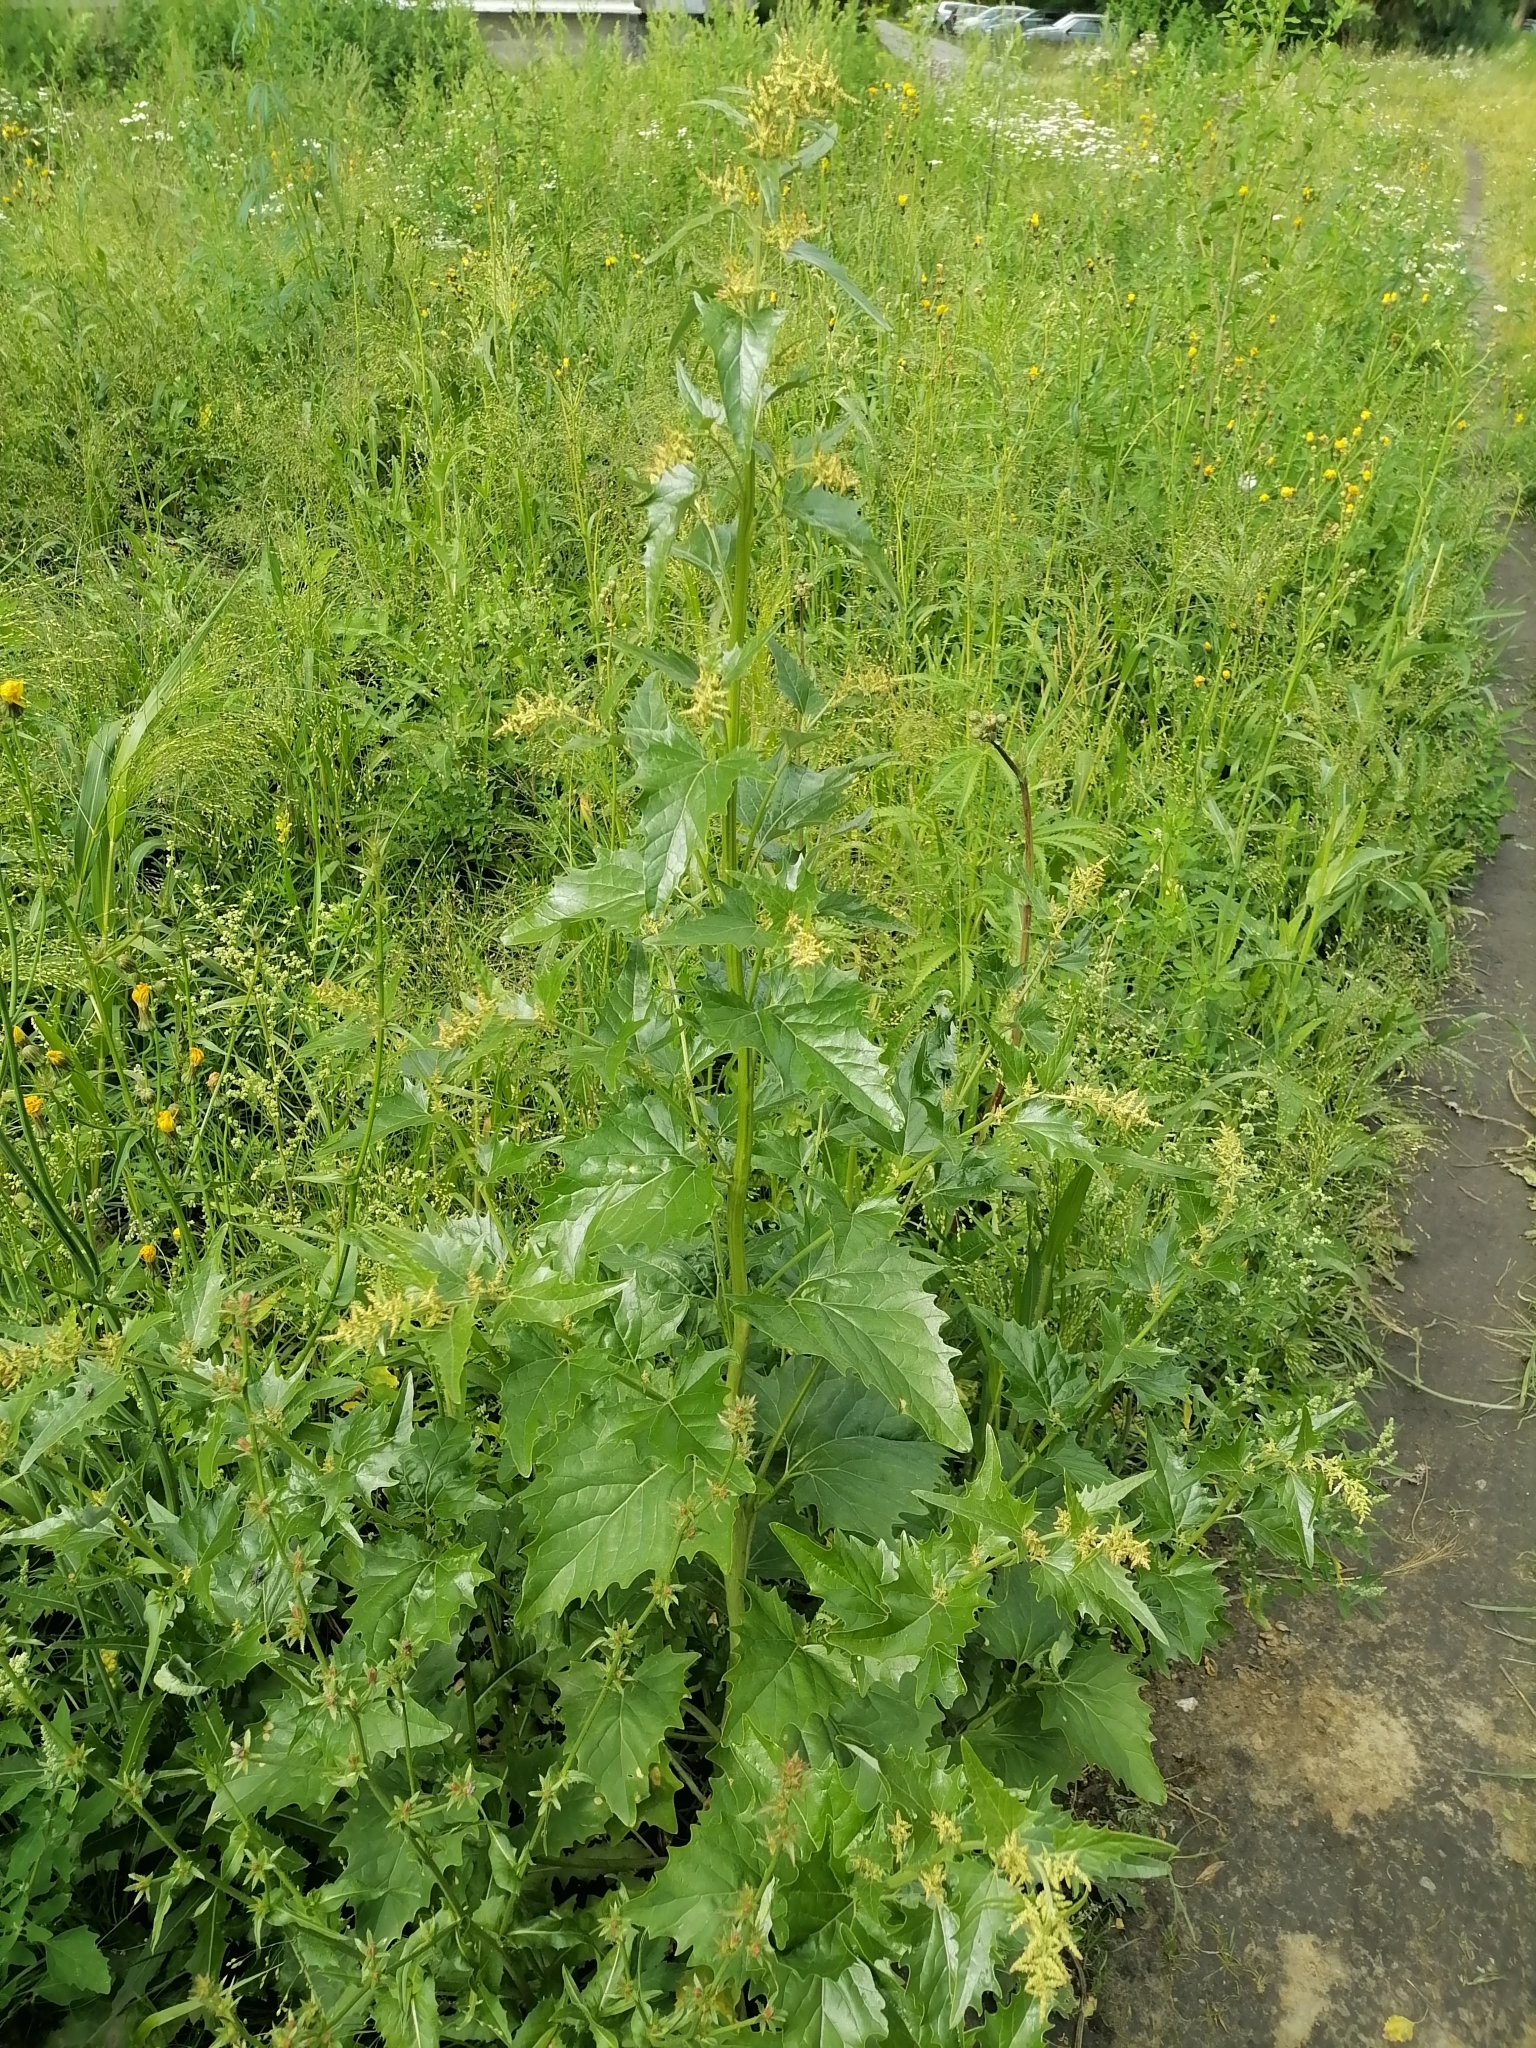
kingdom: Plantae
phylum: Tracheophyta
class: Magnoliopsida
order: Caryophyllales
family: Amaranthaceae
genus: Atriplex
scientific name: Atriplex sagittata
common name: Purple orache
